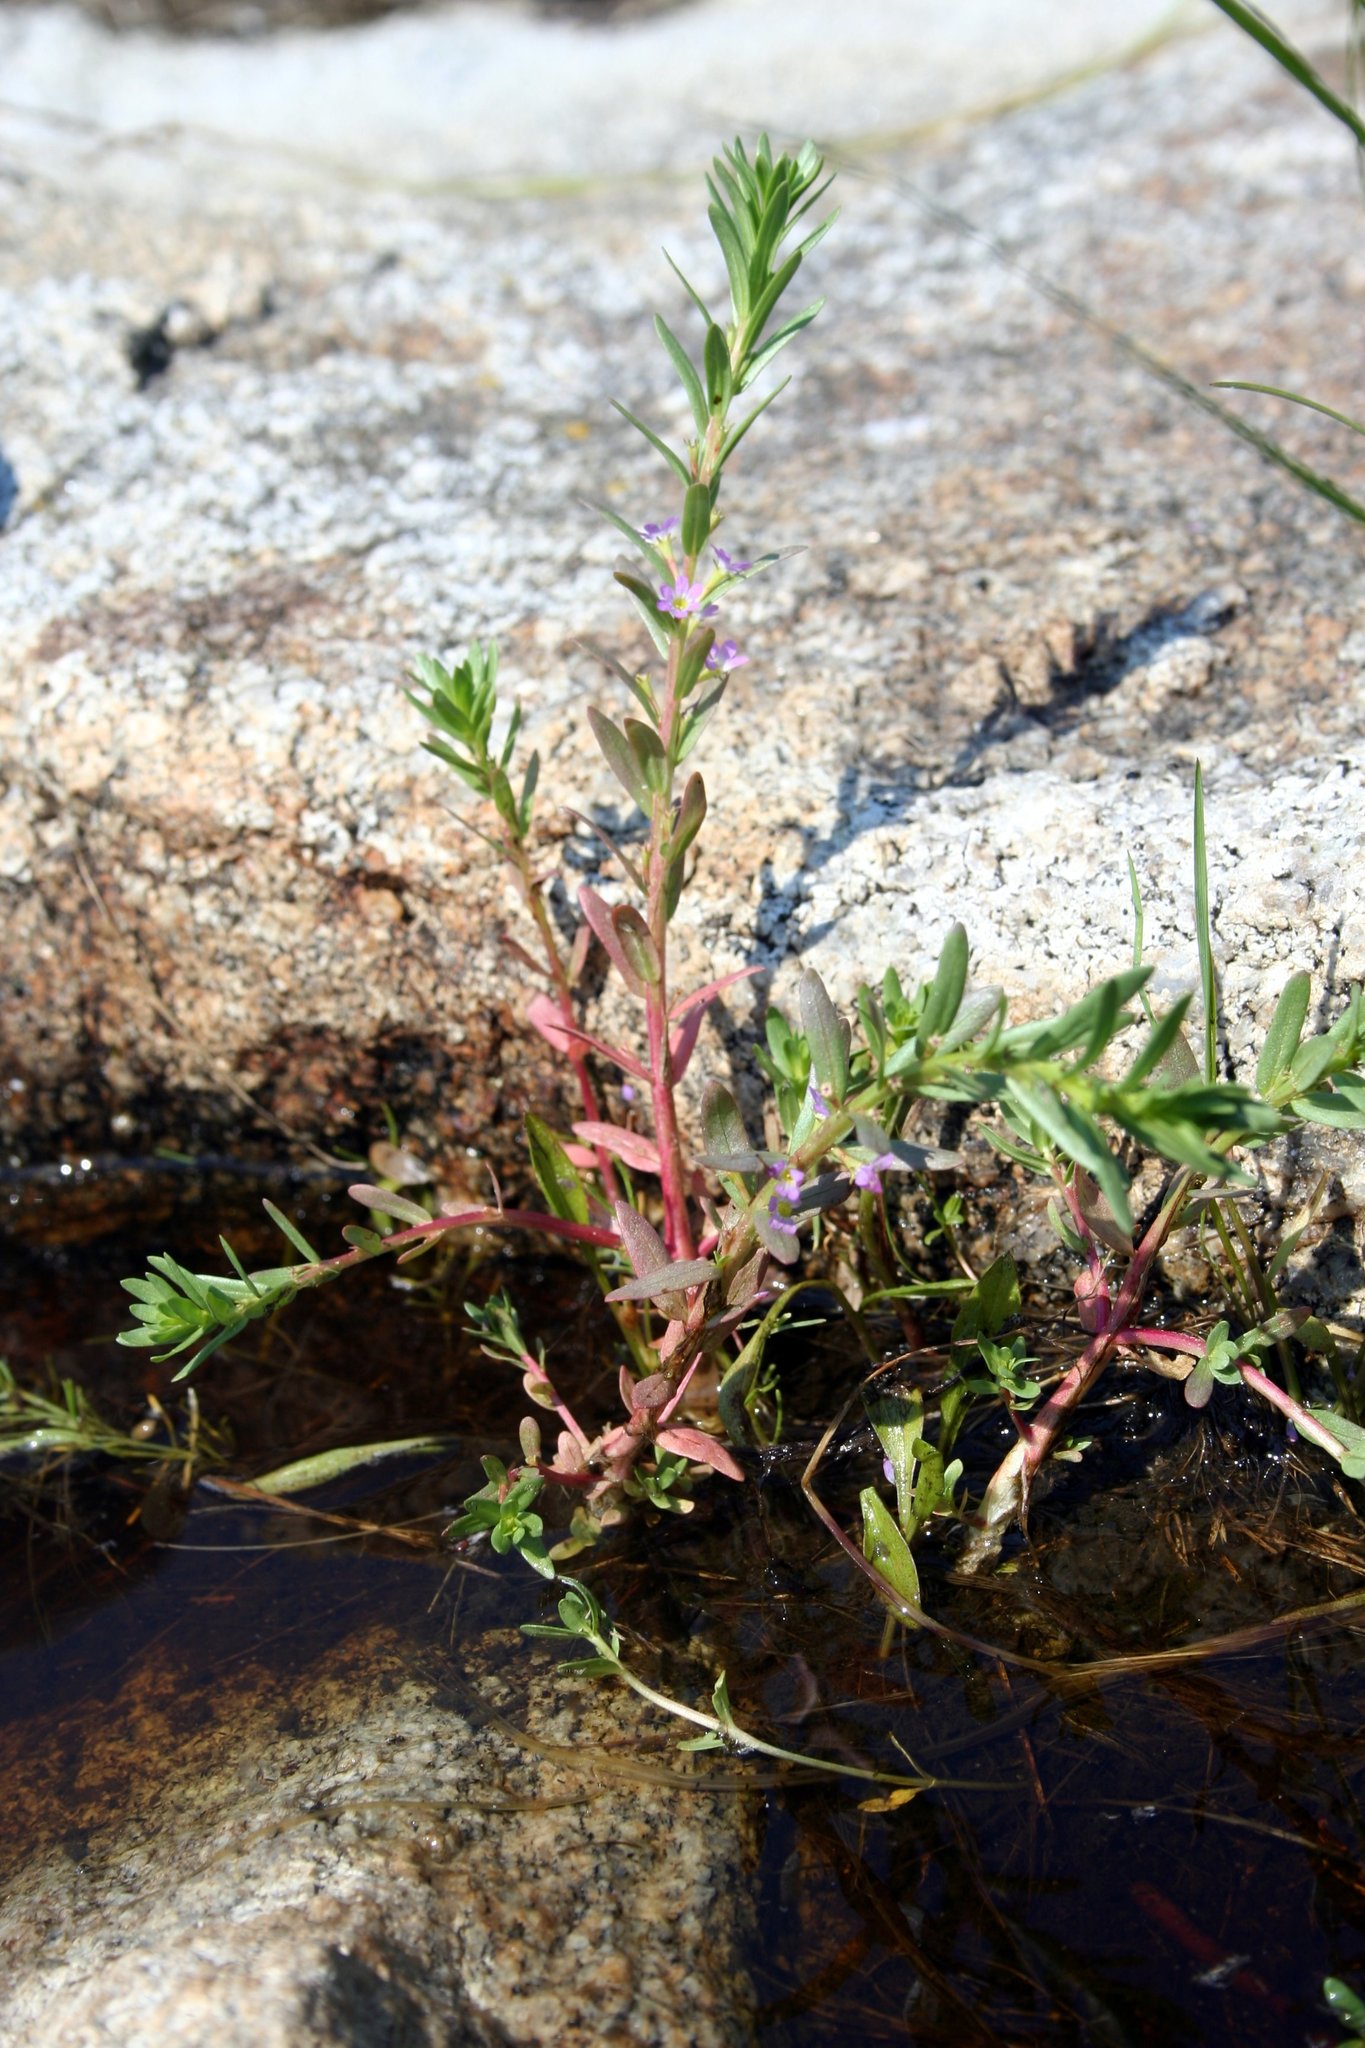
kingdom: Plantae
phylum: Tracheophyta
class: Magnoliopsida
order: Myrtales
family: Lythraceae
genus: Lythrum
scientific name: Lythrum hyssopifolia
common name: Grass-poly
